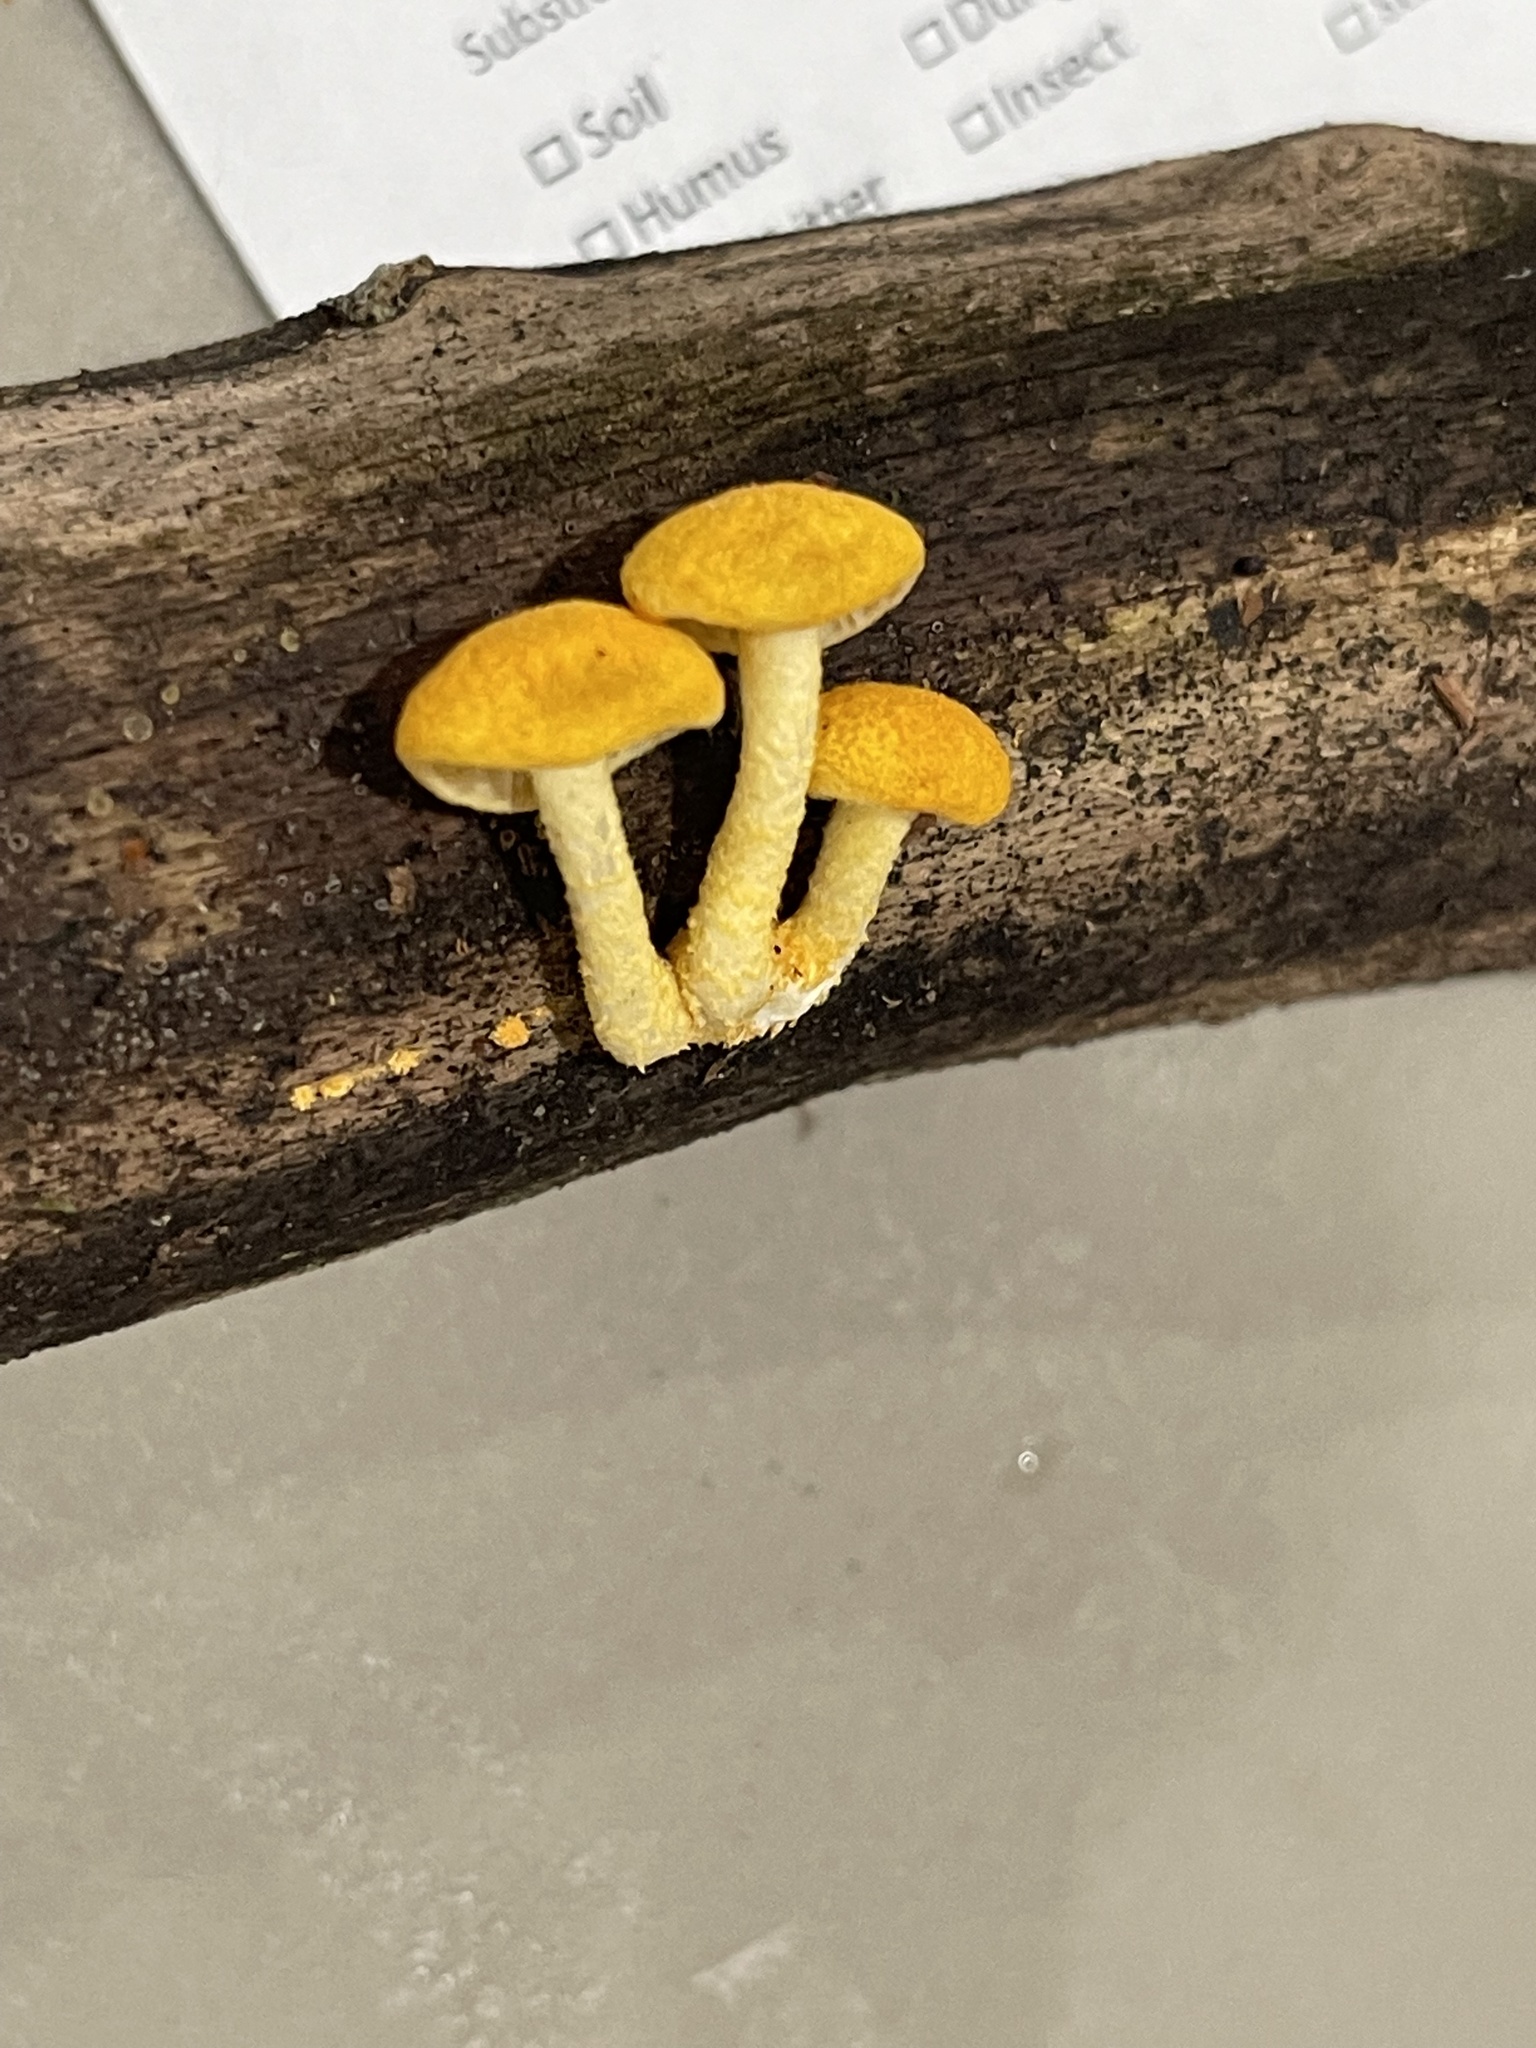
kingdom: Fungi
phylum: Basidiomycota
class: Agaricomycetes
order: Agaricales
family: Physalacriaceae
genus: Cyptotrama
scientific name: Cyptotrama asprata
